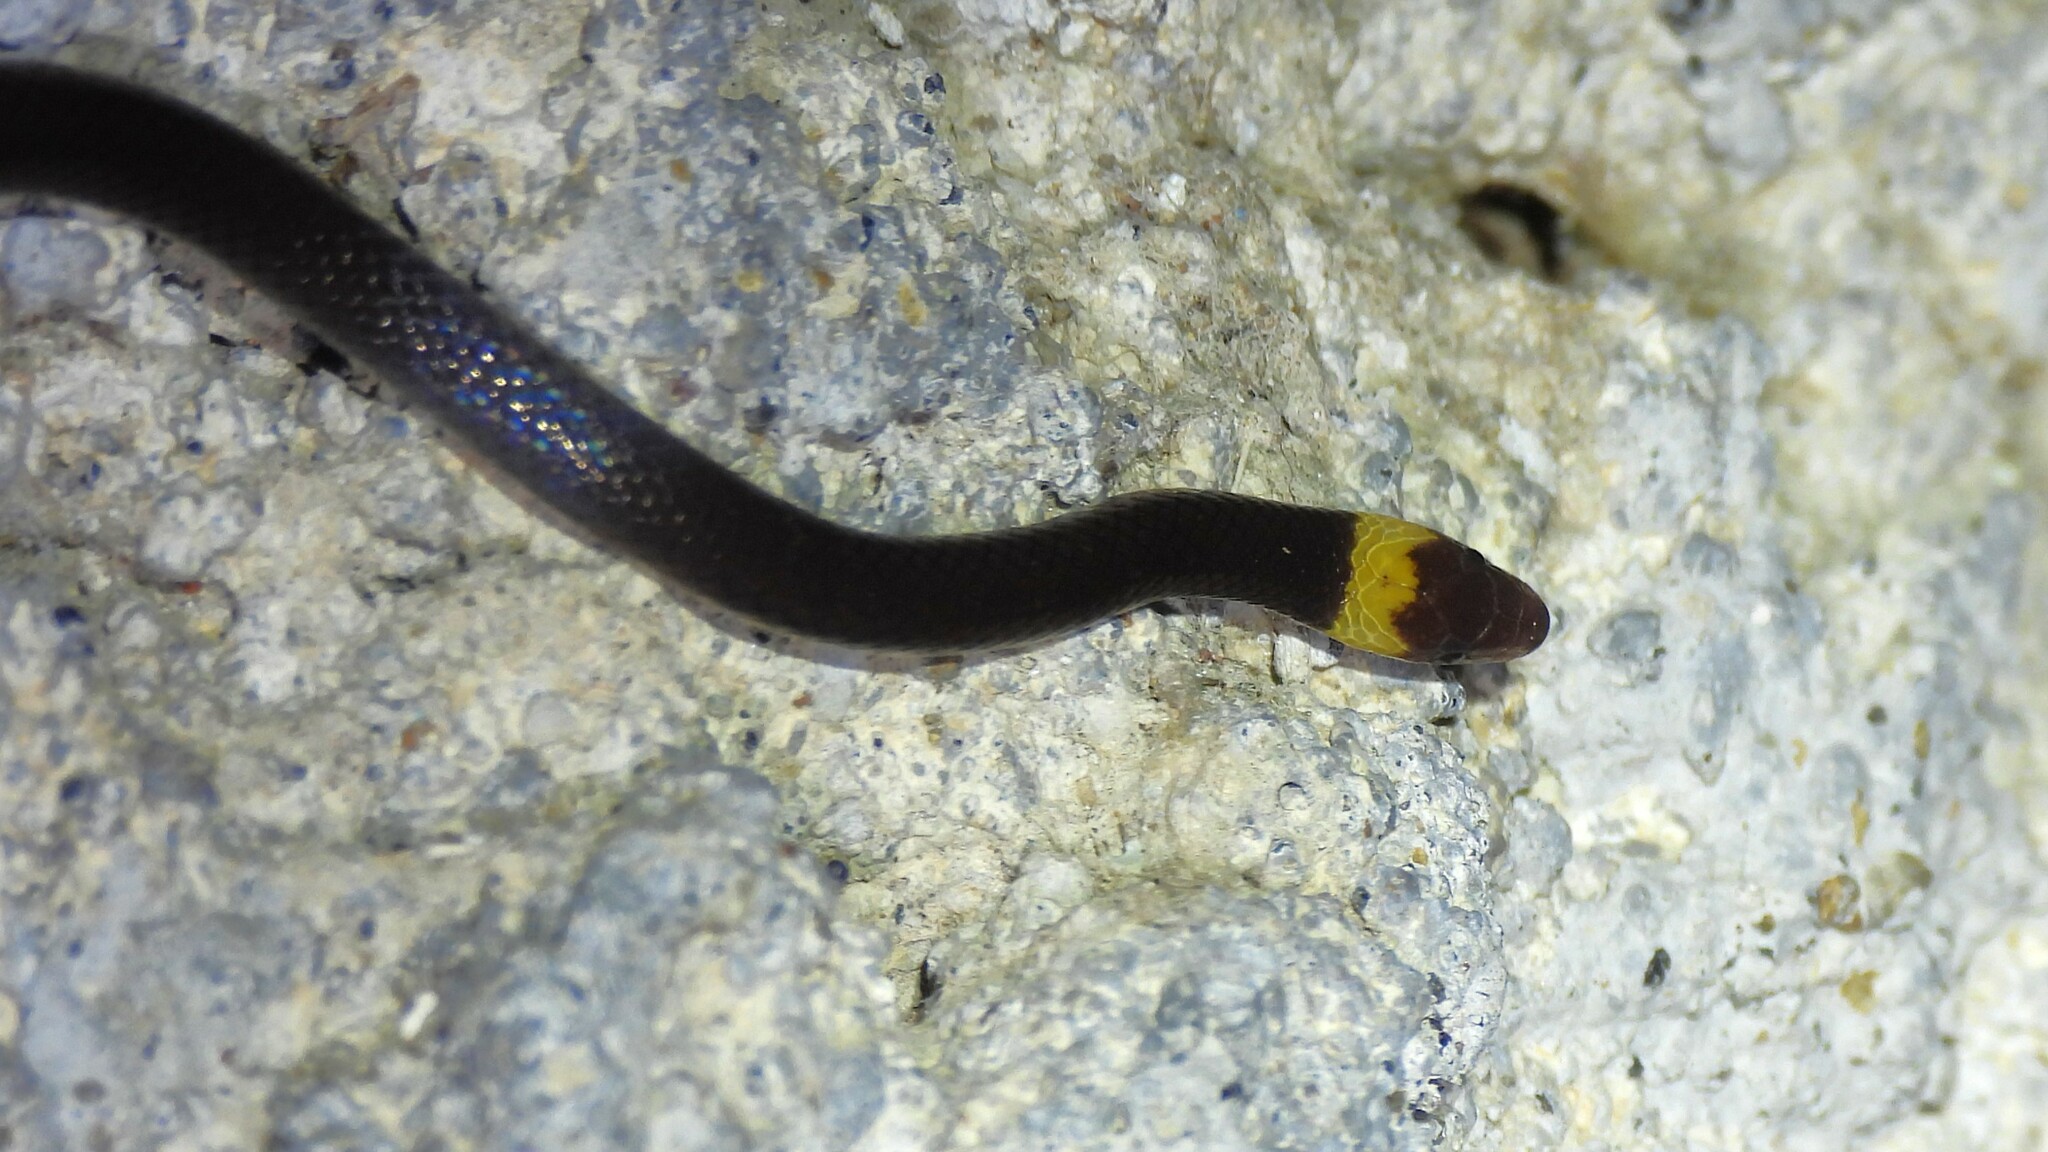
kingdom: Animalia
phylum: Chordata
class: Squamata
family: Colubridae
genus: Enulius
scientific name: Enulius flavitorques
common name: Pacific longtail snake
